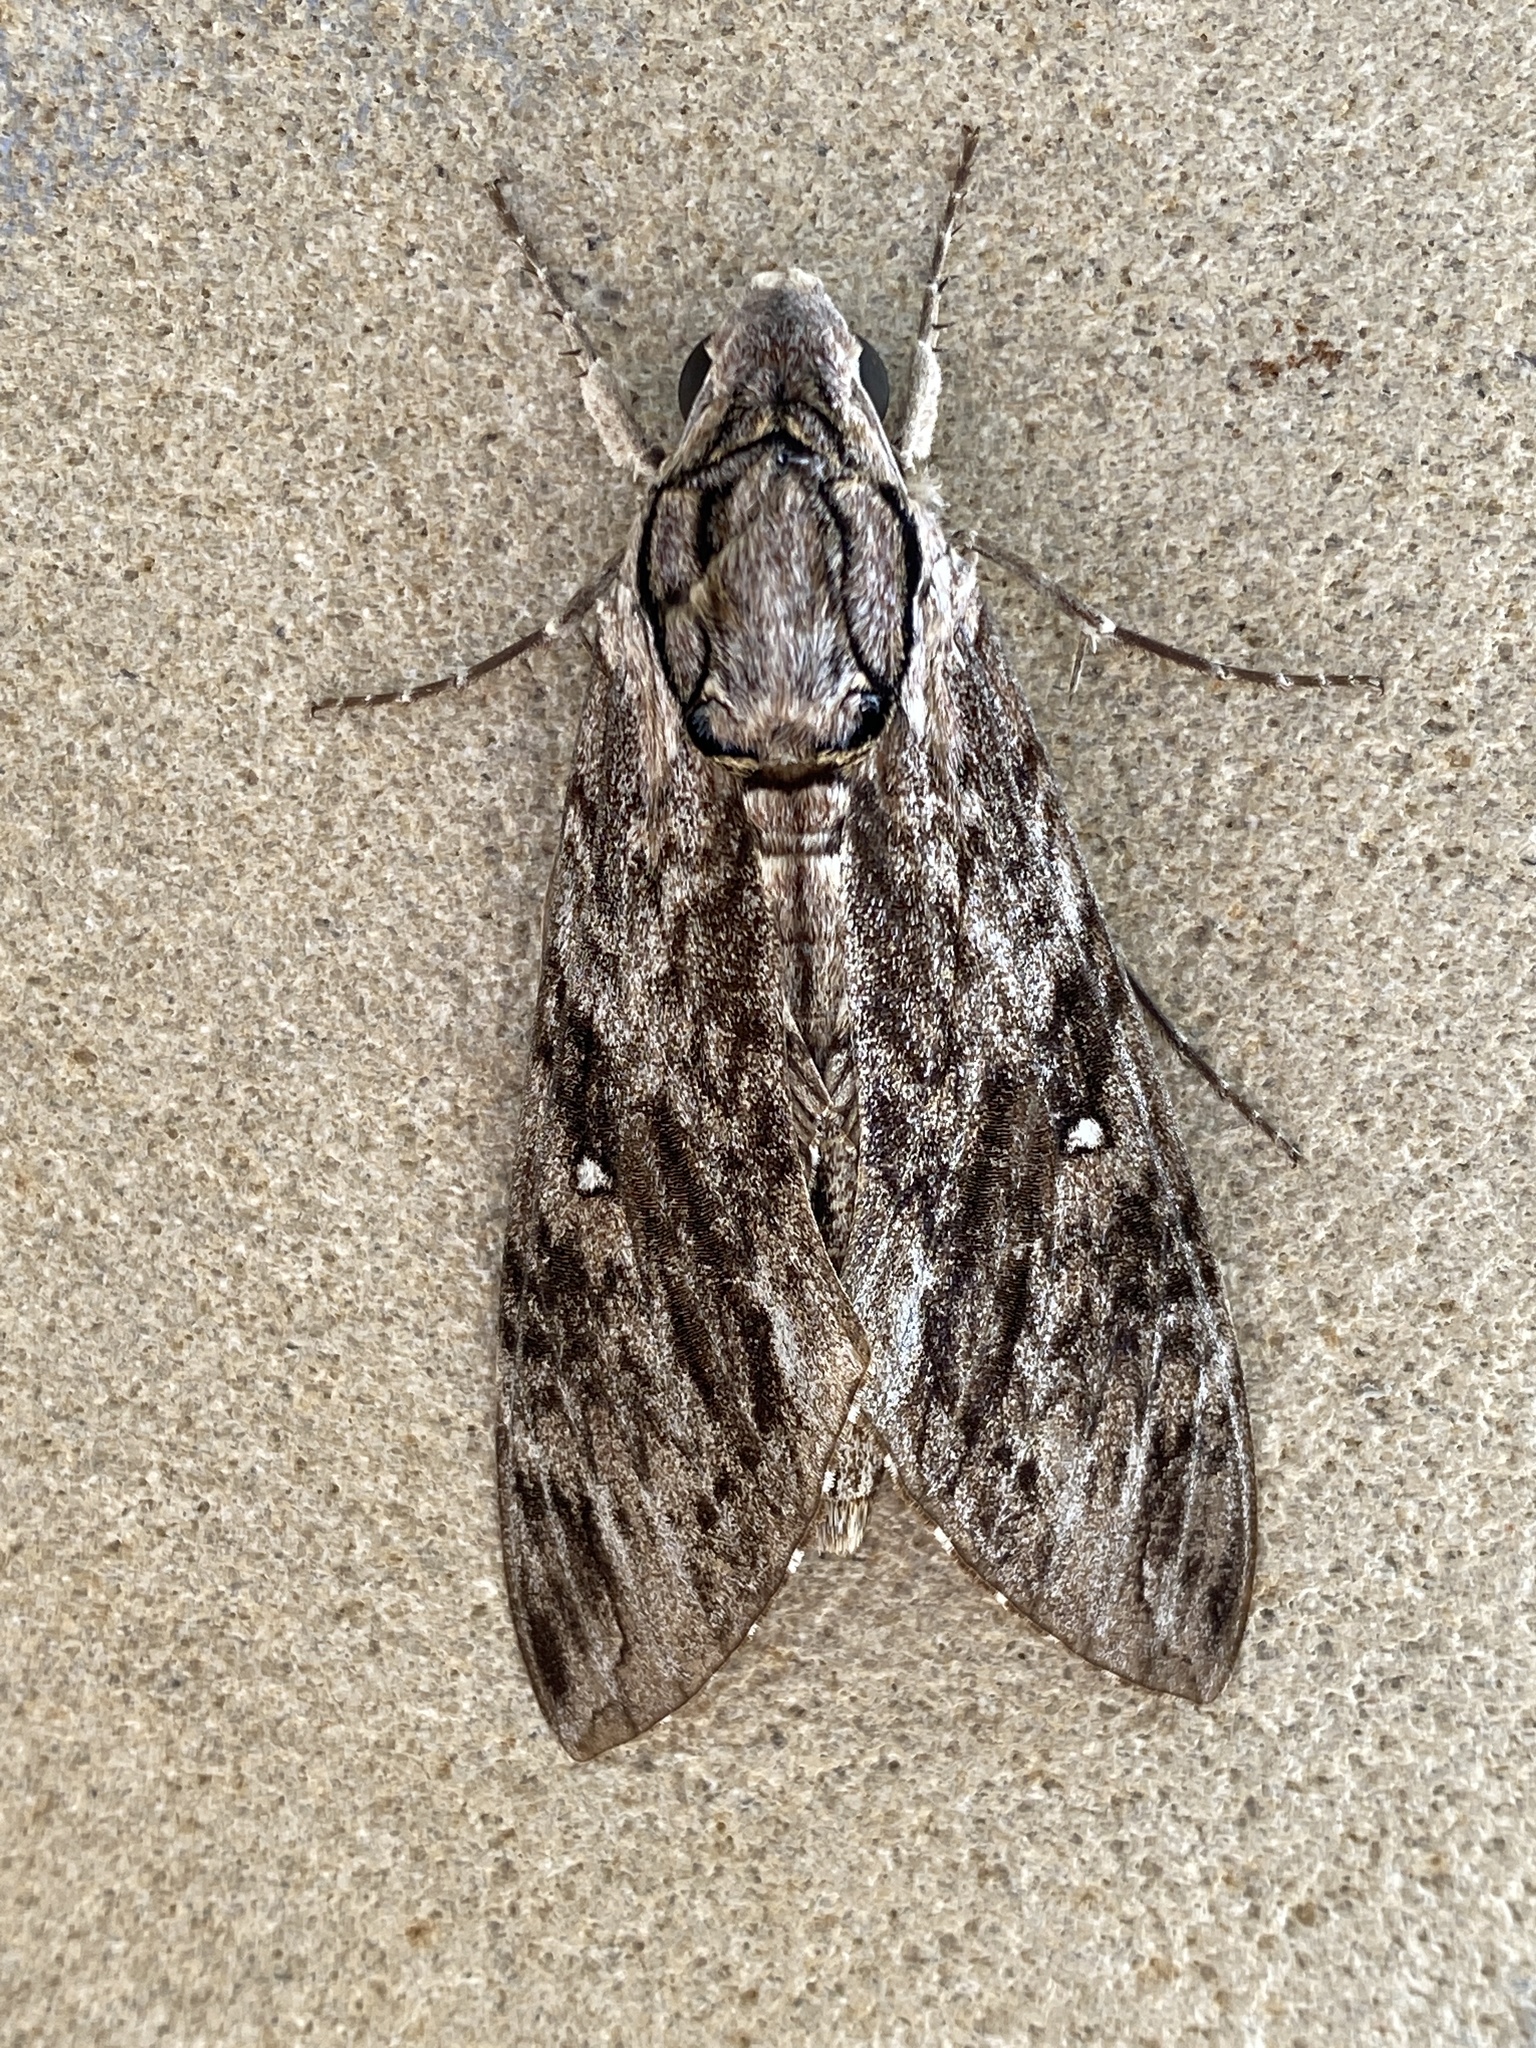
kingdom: Animalia
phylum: Arthropoda
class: Insecta
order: Lepidoptera
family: Sphingidae
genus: Agrius
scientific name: Agrius godarti
